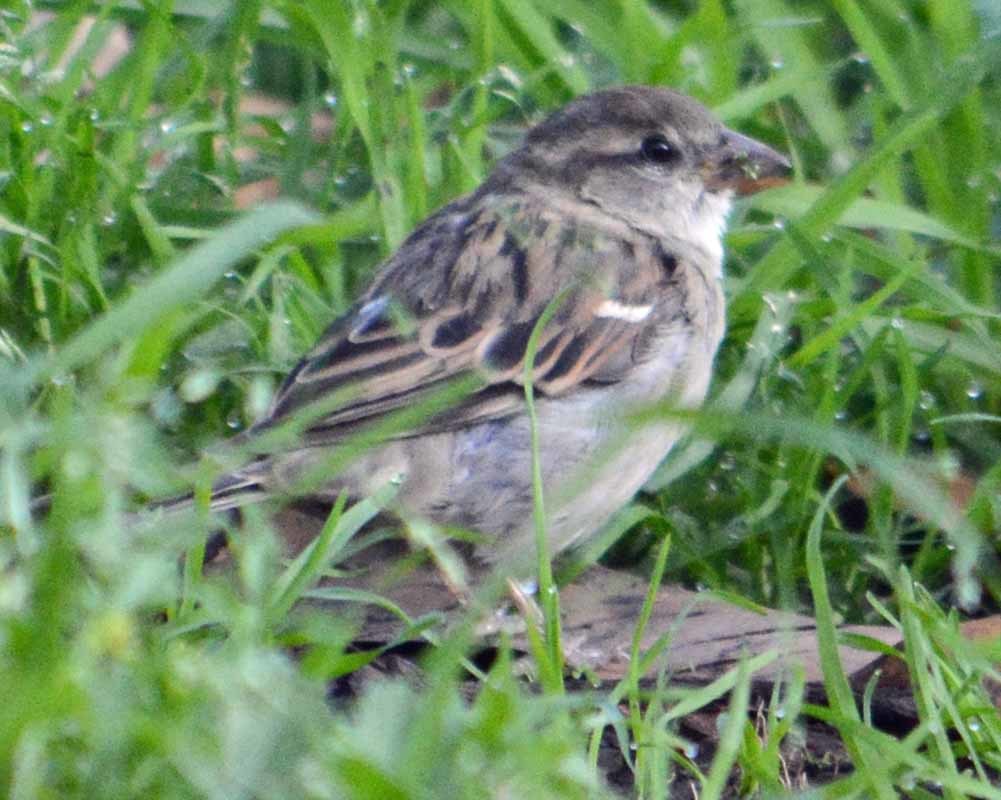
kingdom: Animalia
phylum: Chordata
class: Aves
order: Passeriformes
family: Passeridae
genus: Passer
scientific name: Passer domesticus
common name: House sparrow
